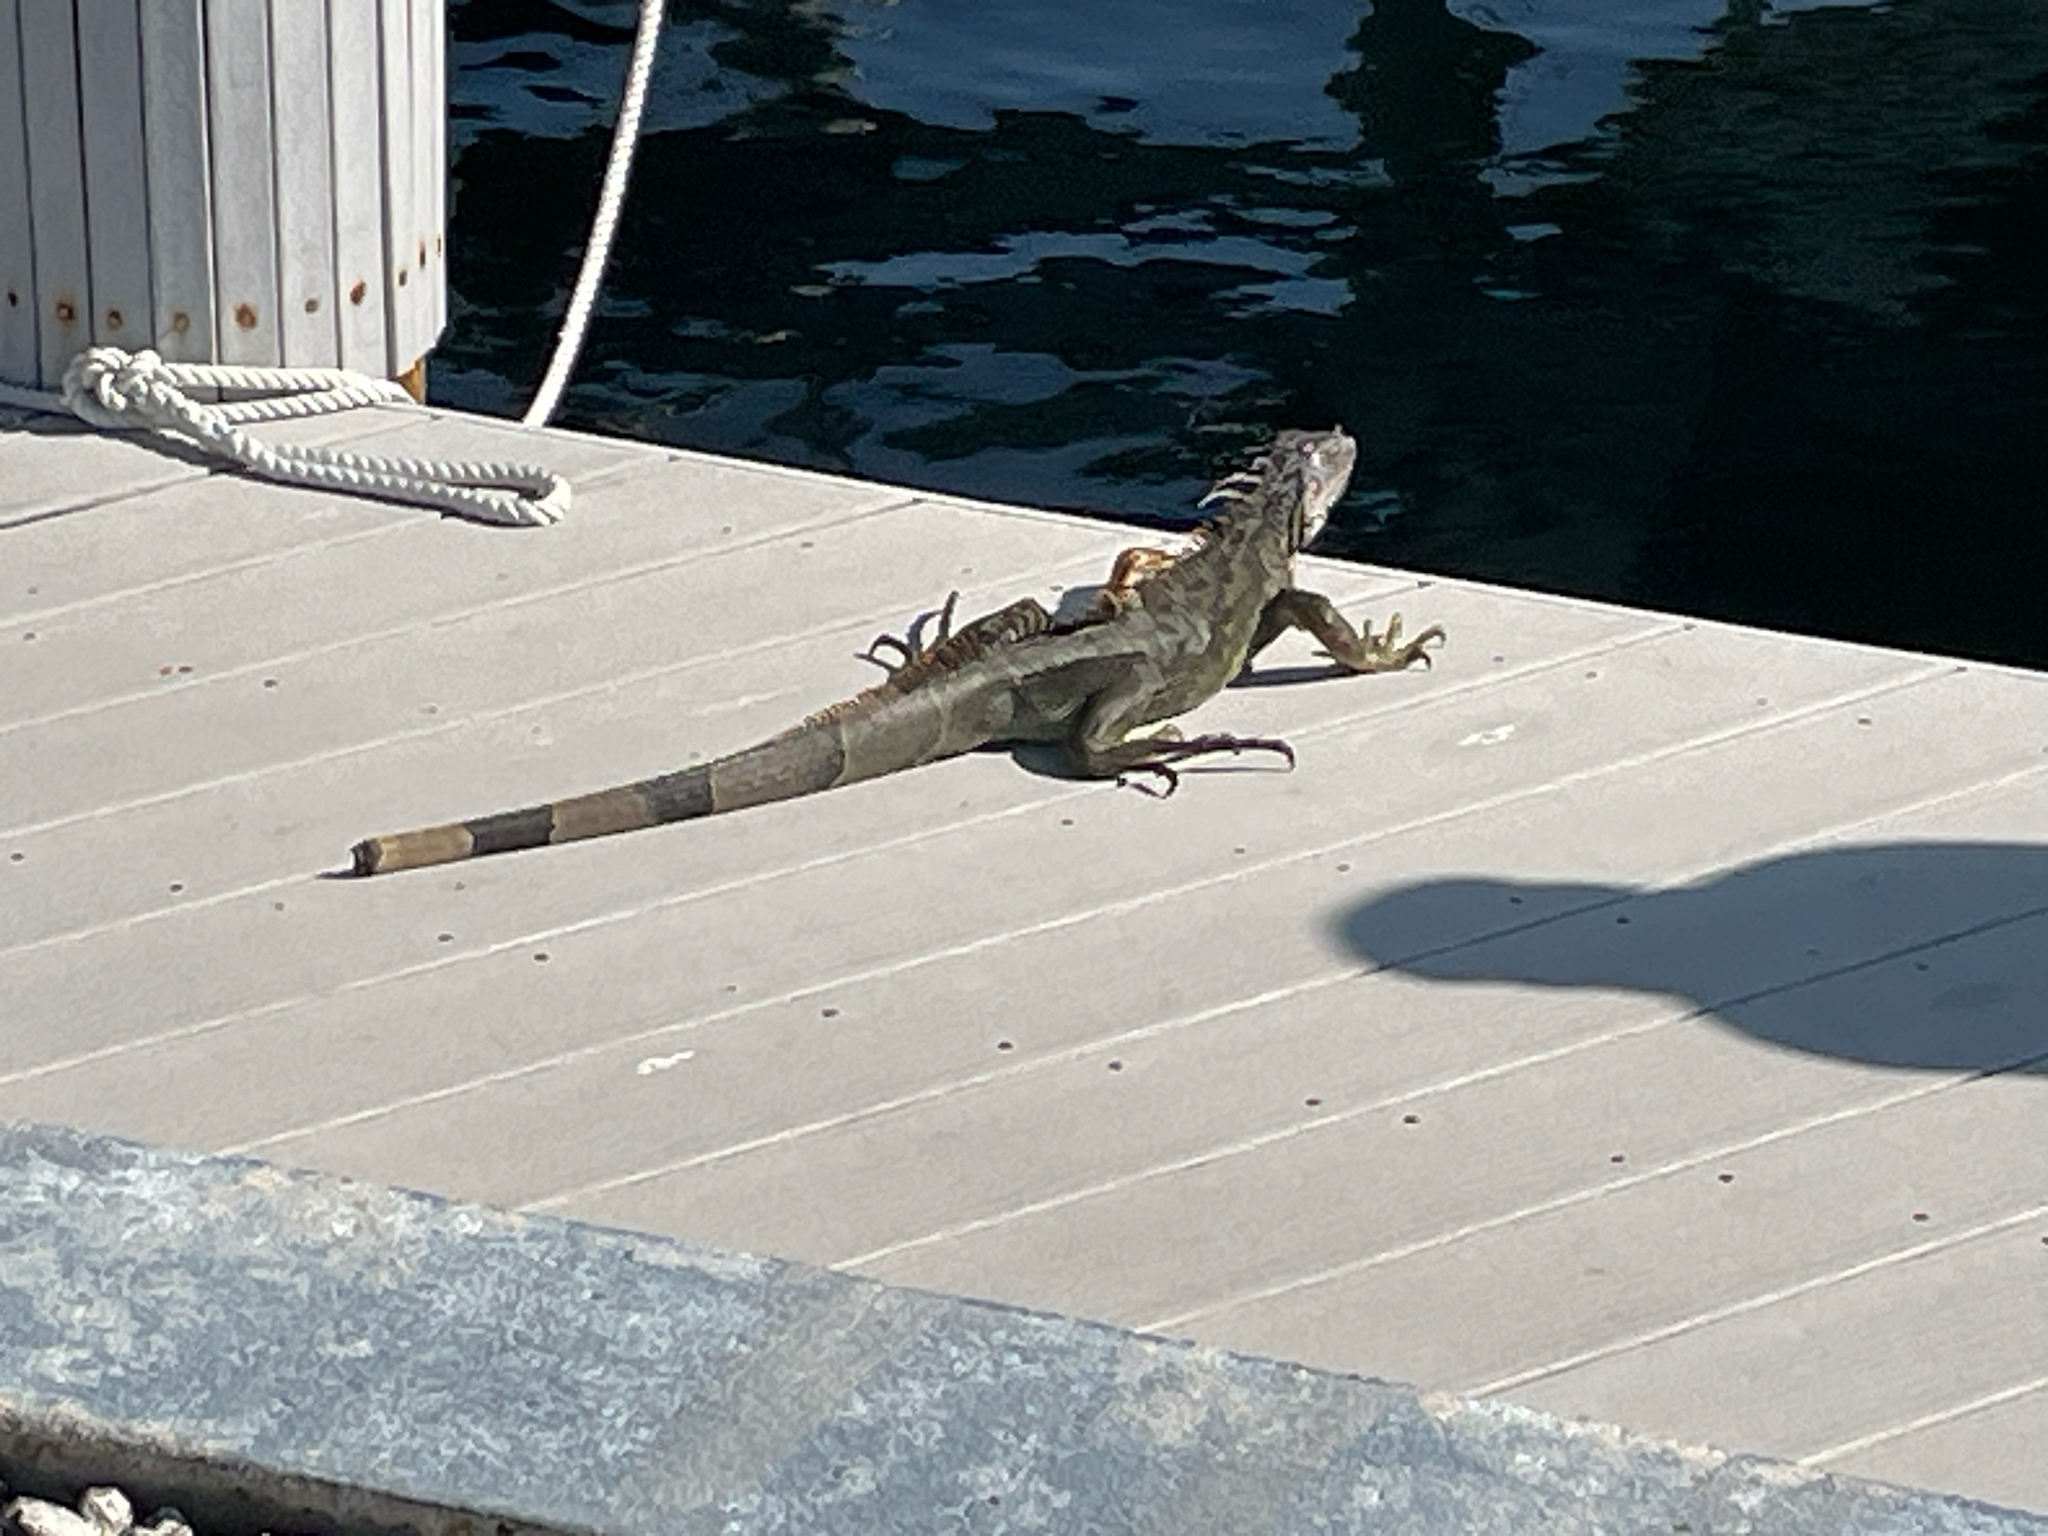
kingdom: Animalia
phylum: Chordata
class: Squamata
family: Iguanidae
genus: Iguana
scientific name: Iguana iguana
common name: Green iguana
